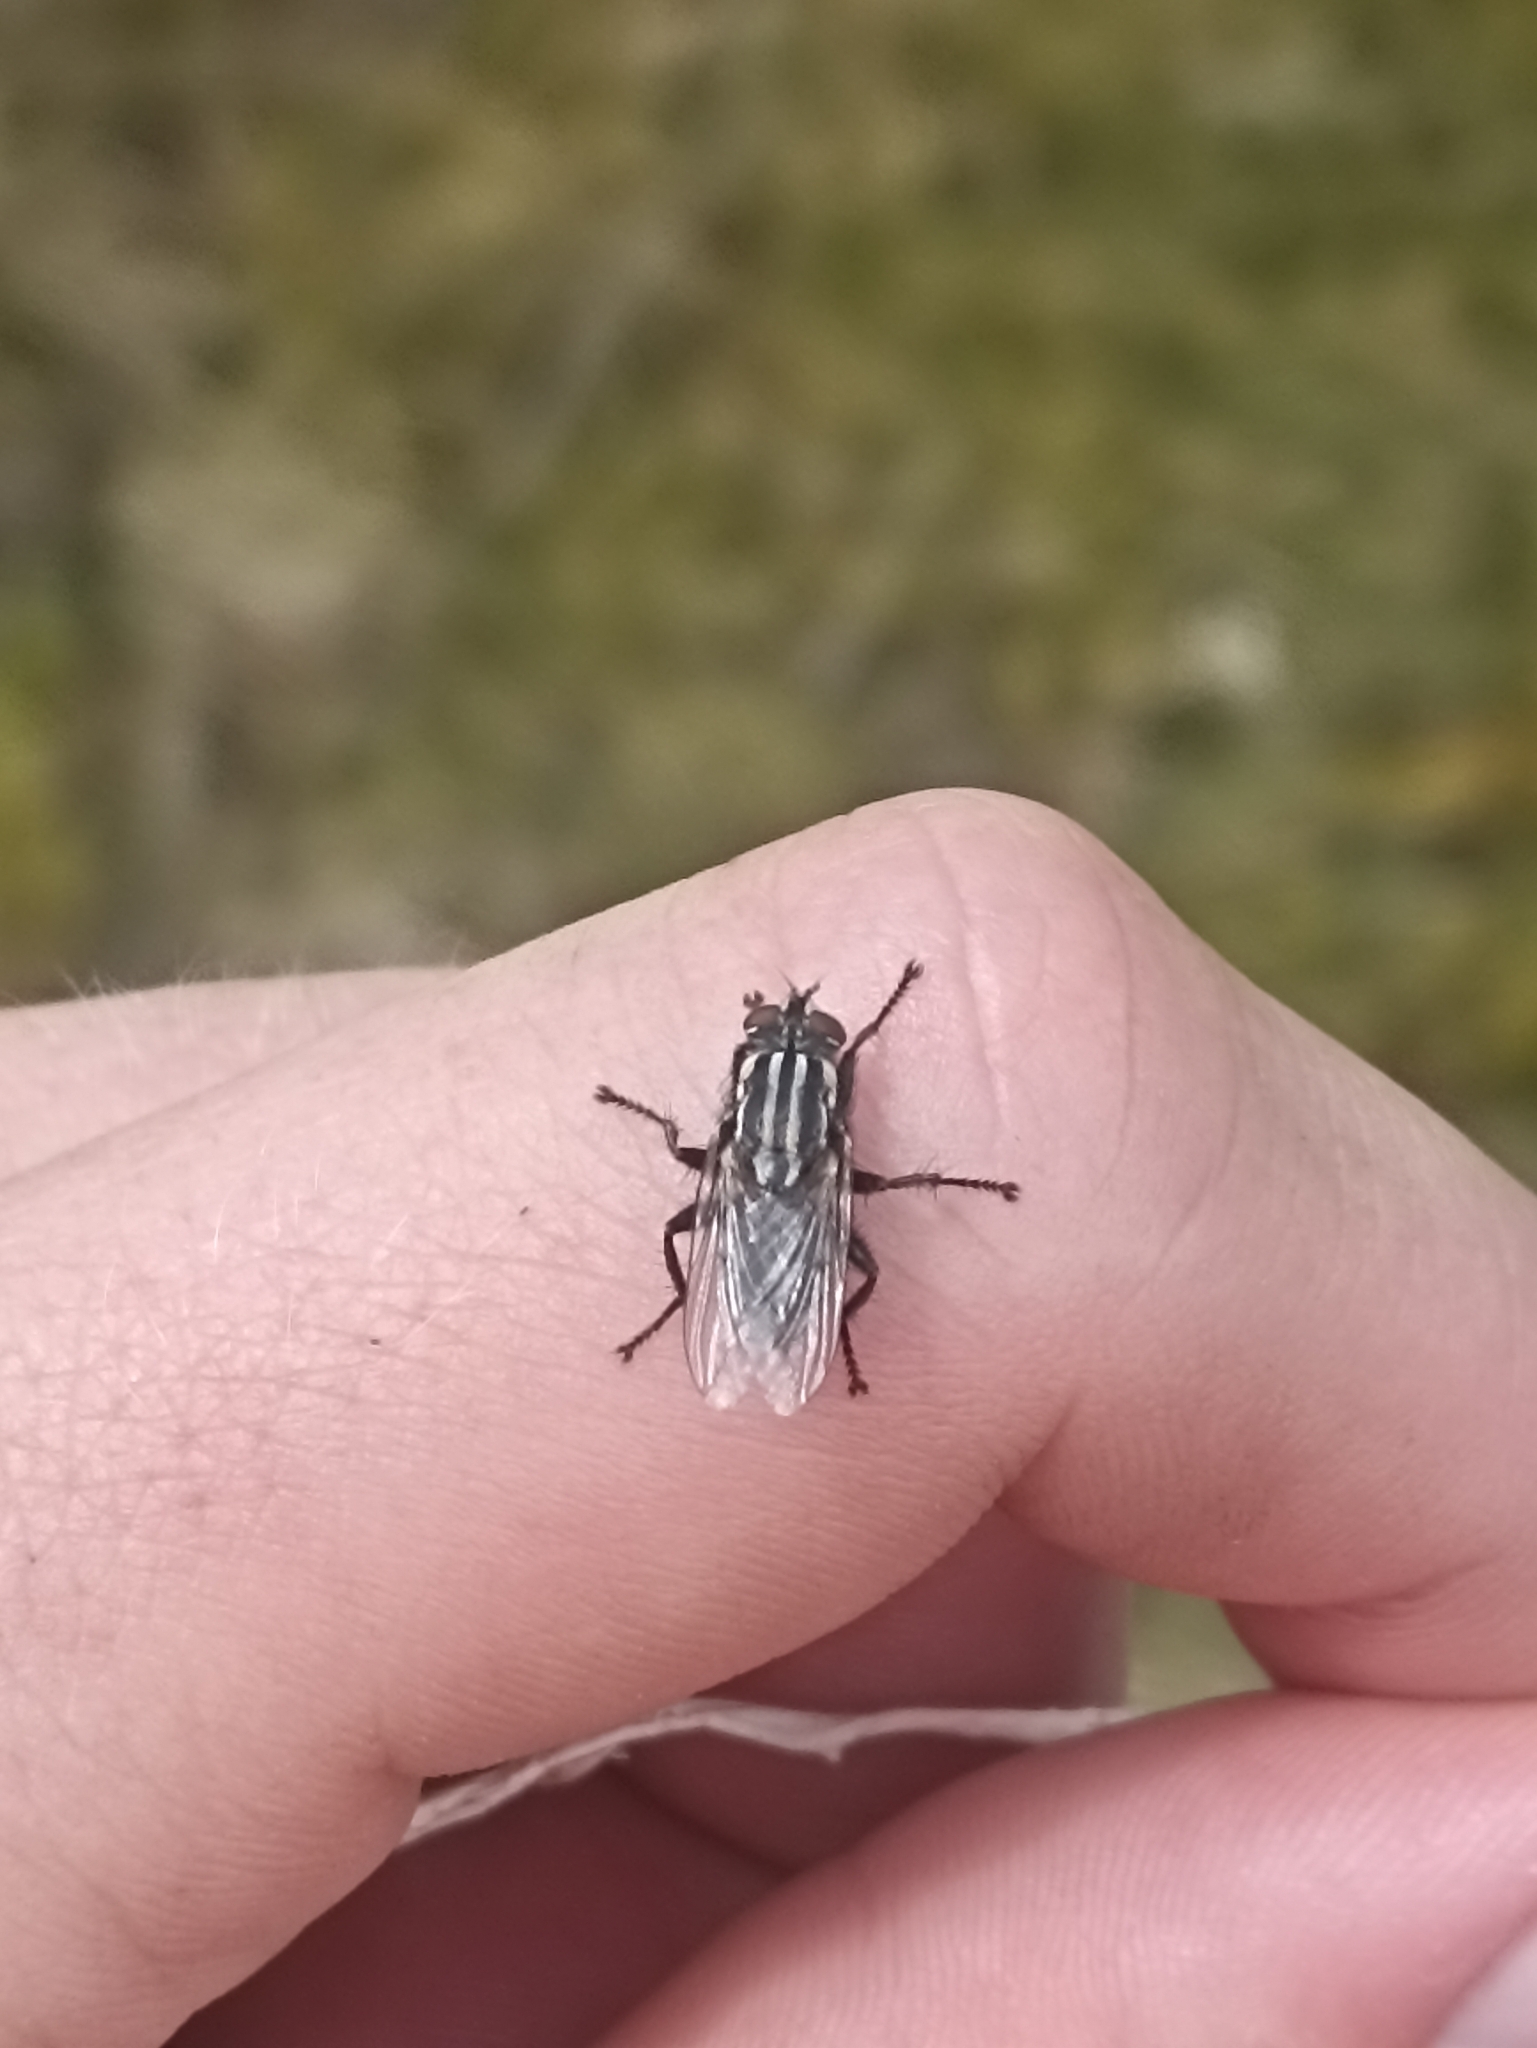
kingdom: Animalia
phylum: Arthropoda
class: Insecta
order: Diptera
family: Sarcophagidae
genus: Oxysarcodexia
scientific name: Oxysarcodexia varia
